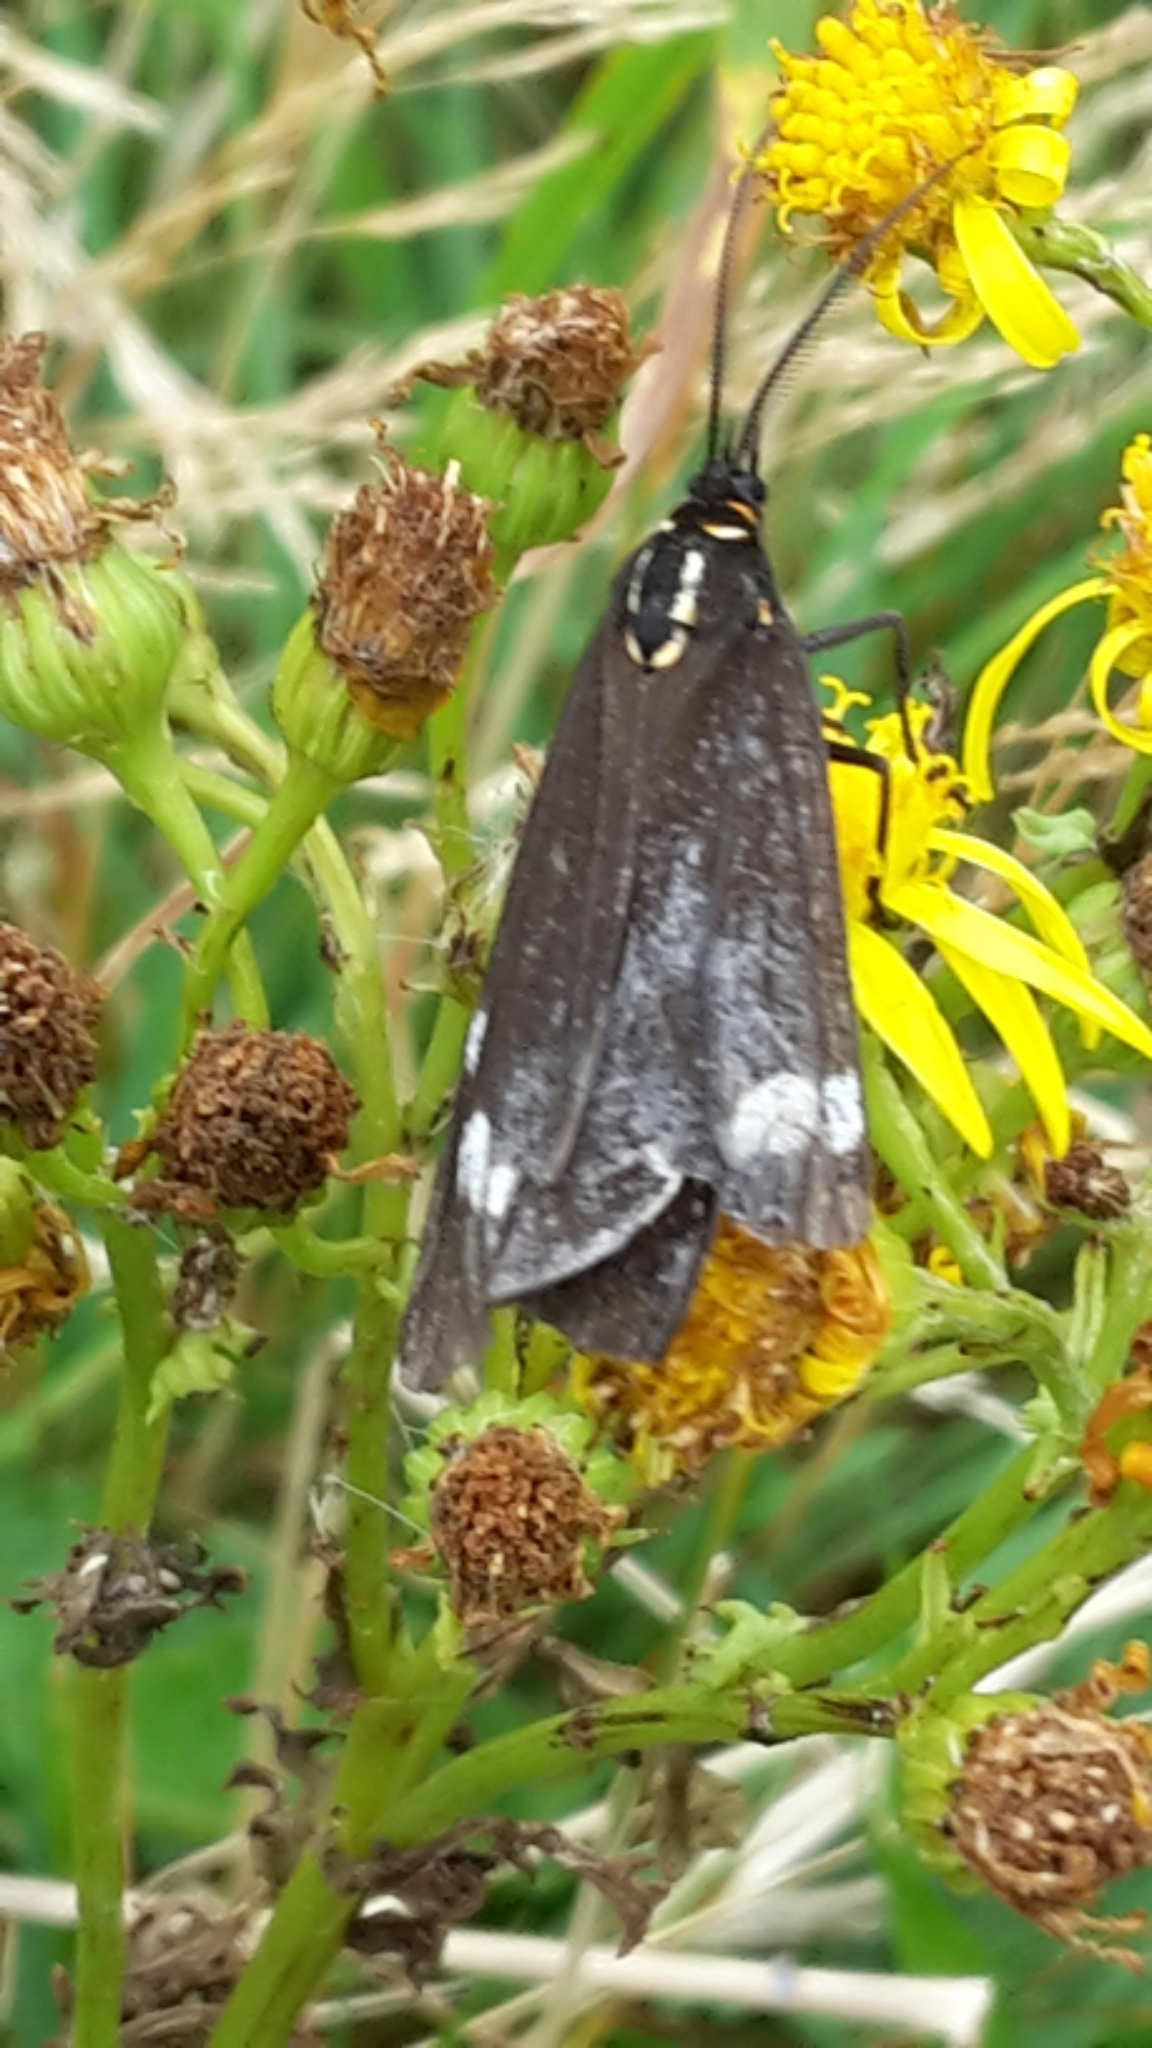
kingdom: Animalia
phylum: Arthropoda
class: Insecta
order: Lepidoptera
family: Erebidae
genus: Nyctemera
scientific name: Nyctemera annulatum
